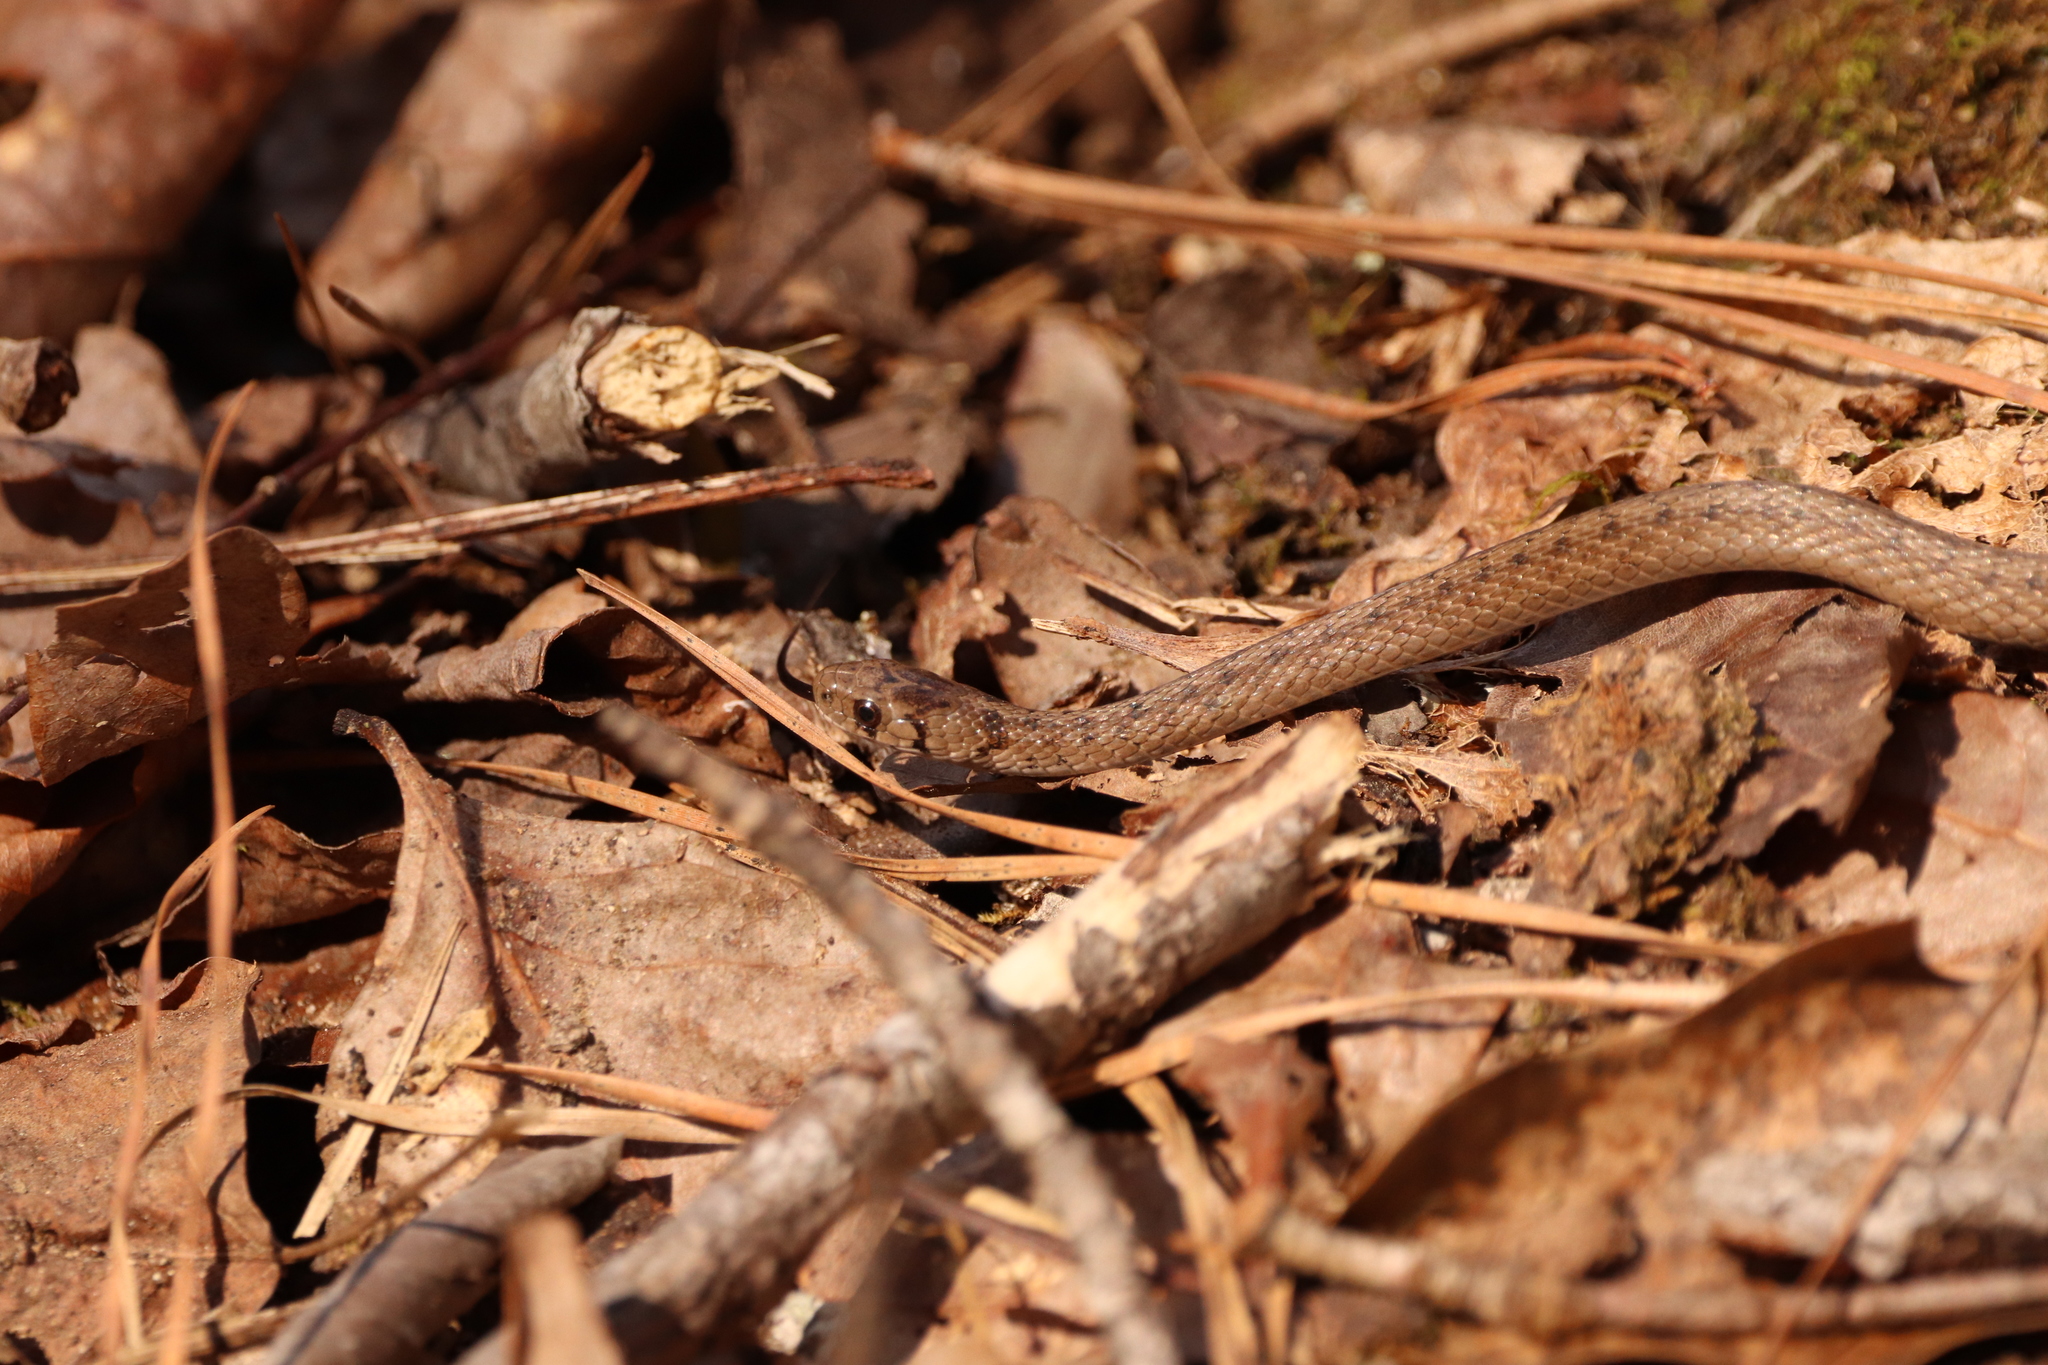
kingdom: Animalia
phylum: Chordata
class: Squamata
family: Colubridae
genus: Storeria
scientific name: Storeria dekayi
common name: (dekay’s) brown snake
